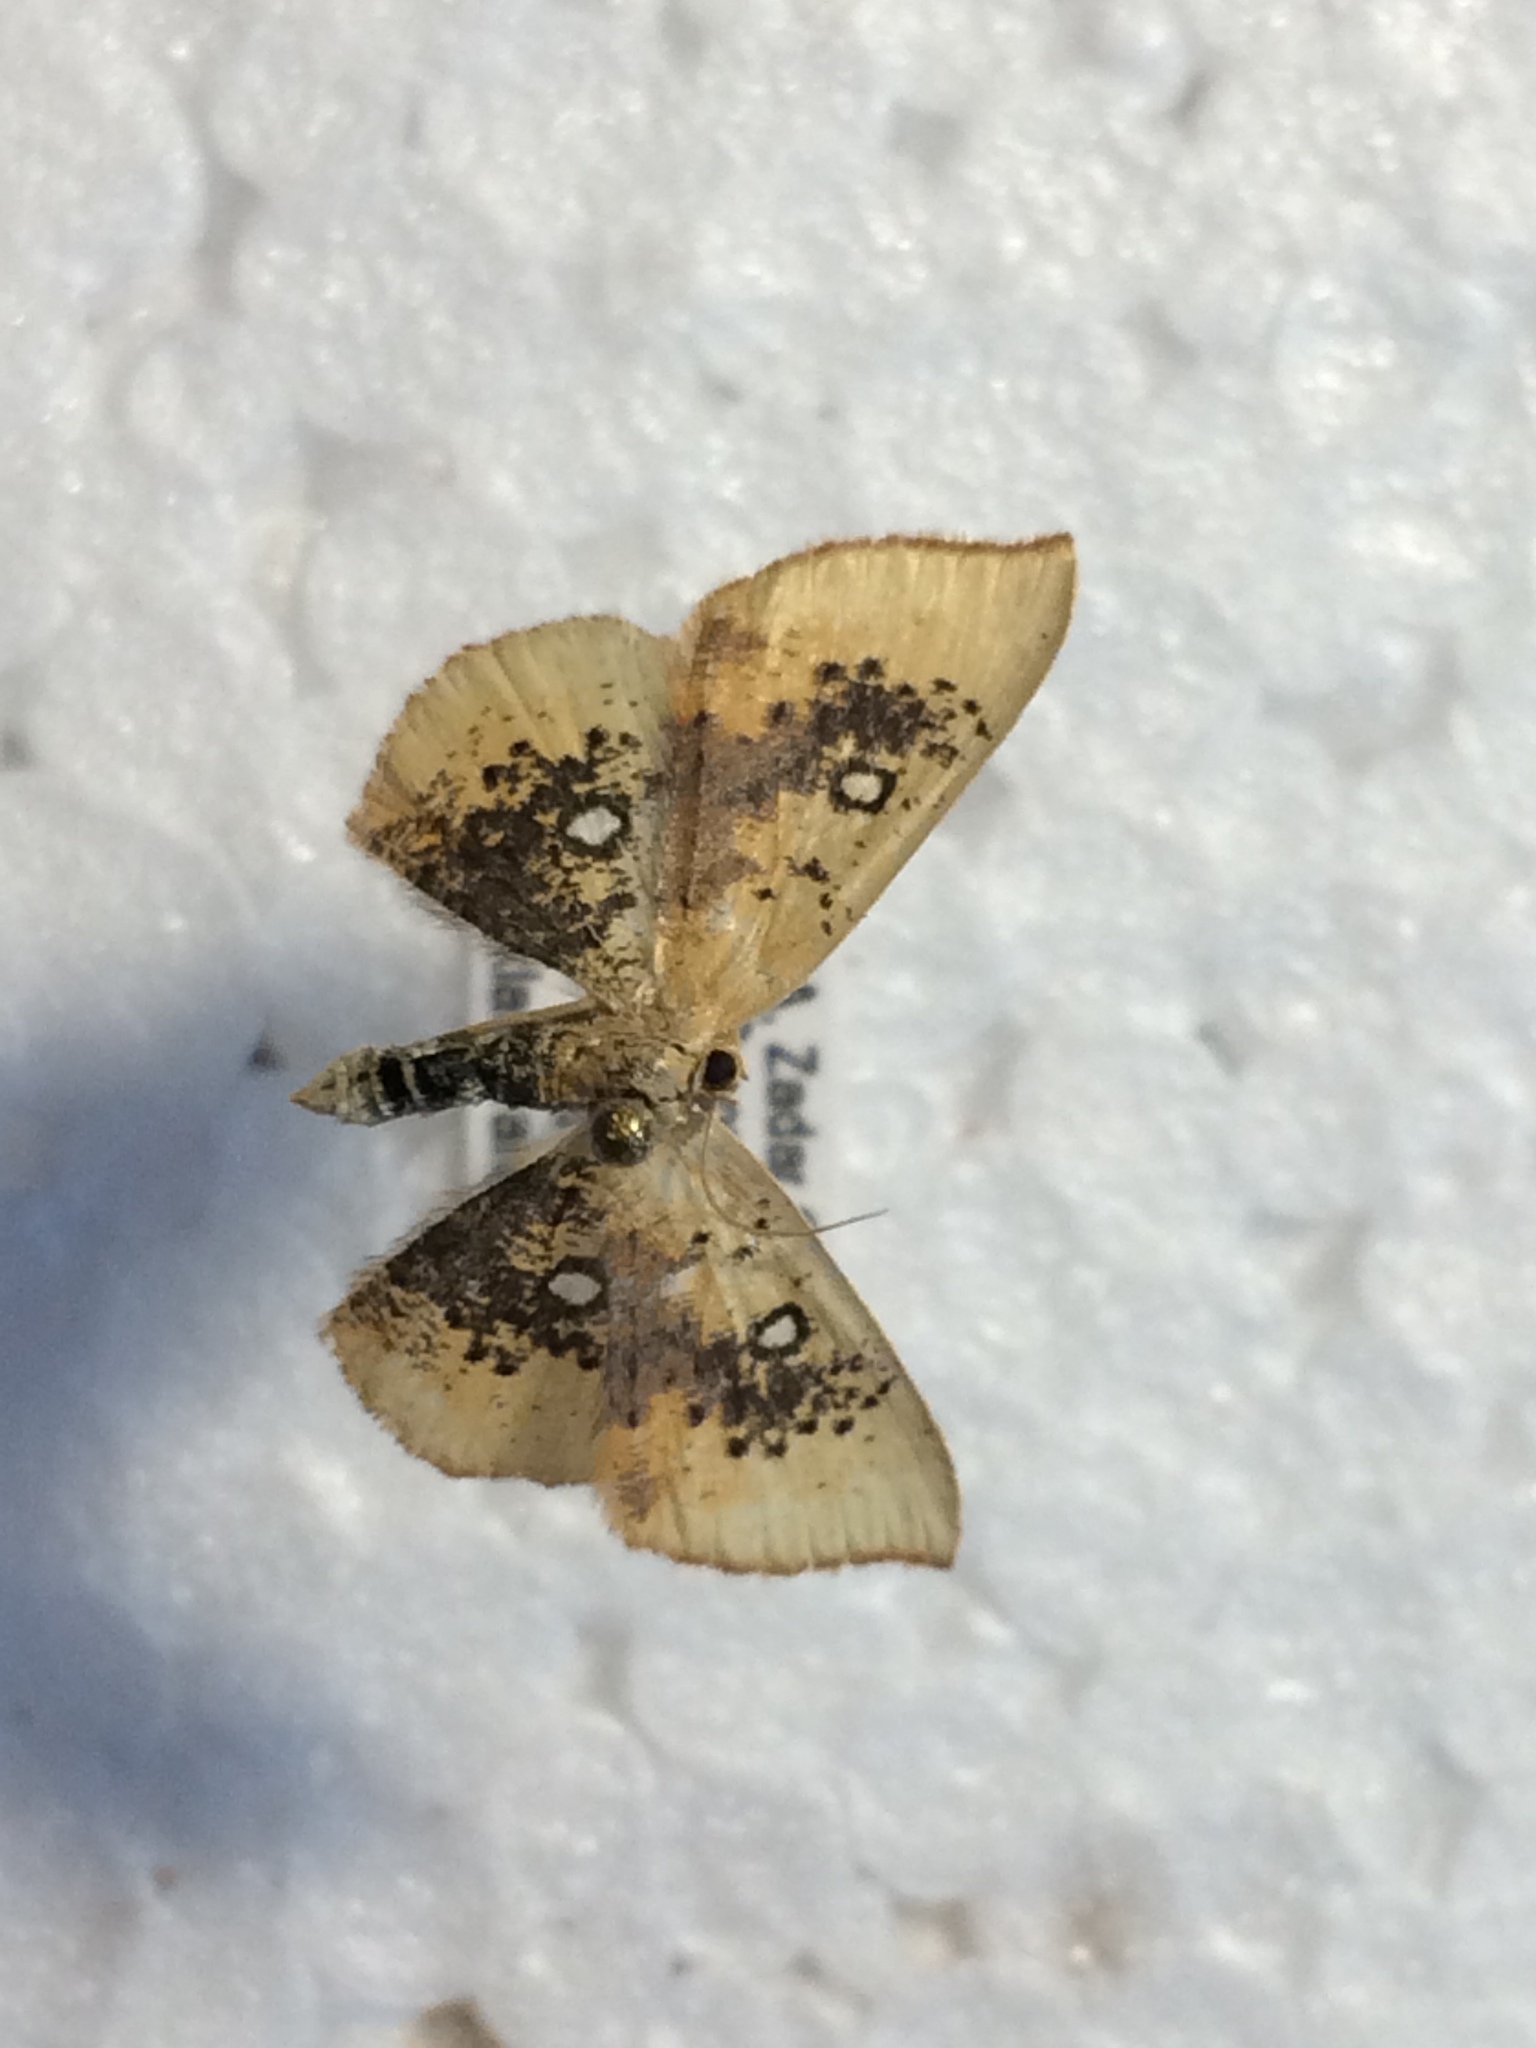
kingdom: Animalia
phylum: Arthropoda
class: Insecta
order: Lepidoptera
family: Geometridae
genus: Cyclophora
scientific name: Cyclophora albiocellaria
